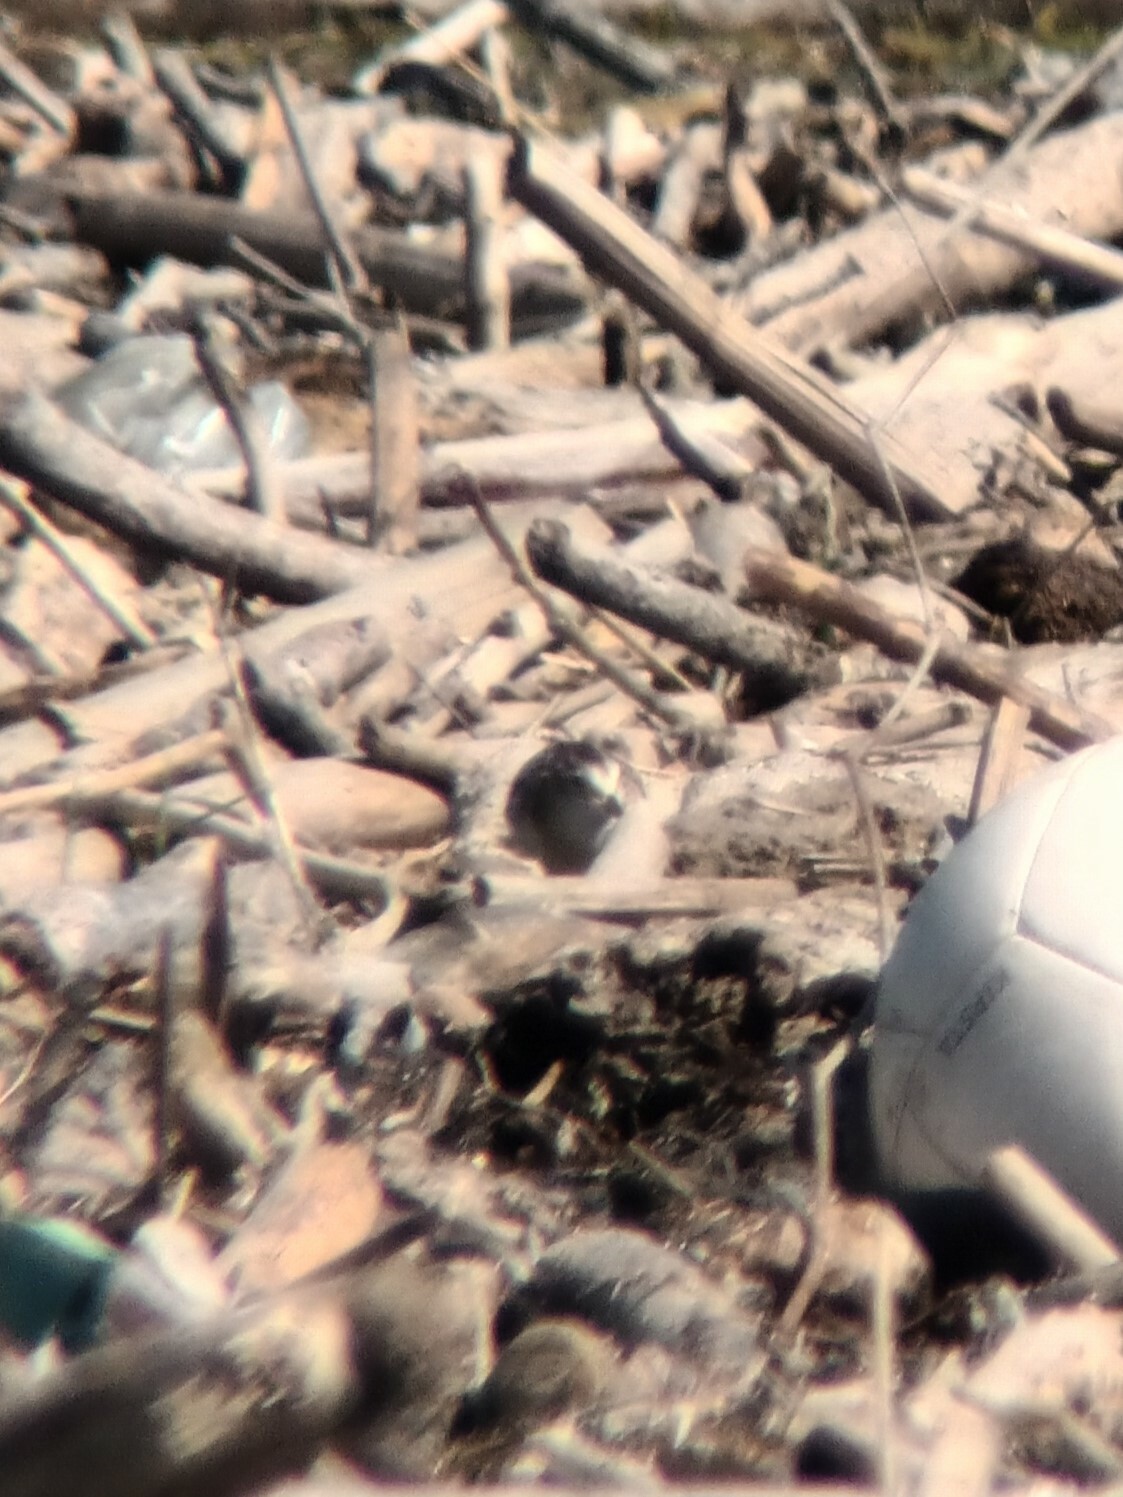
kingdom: Animalia
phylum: Chordata
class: Aves
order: Charadriiformes
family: Scolopacidae
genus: Calidris
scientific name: Calidris minuta
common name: Little stint
